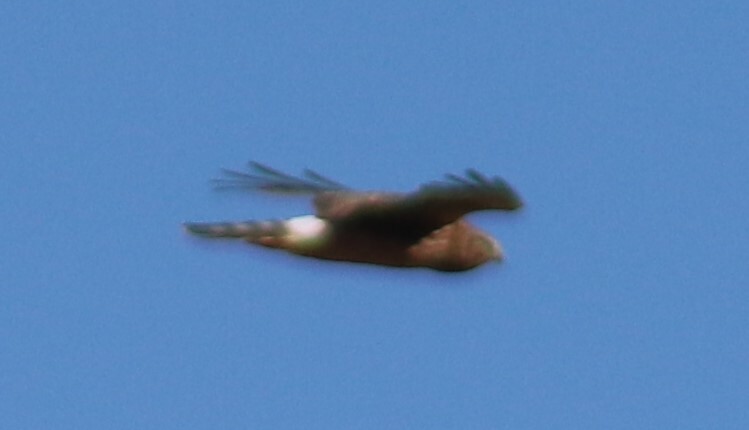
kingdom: Animalia
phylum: Chordata
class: Aves
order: Accipitriformes
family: Accipitridae
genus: Circus
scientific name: Circus cyaneus
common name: Hen harrier
